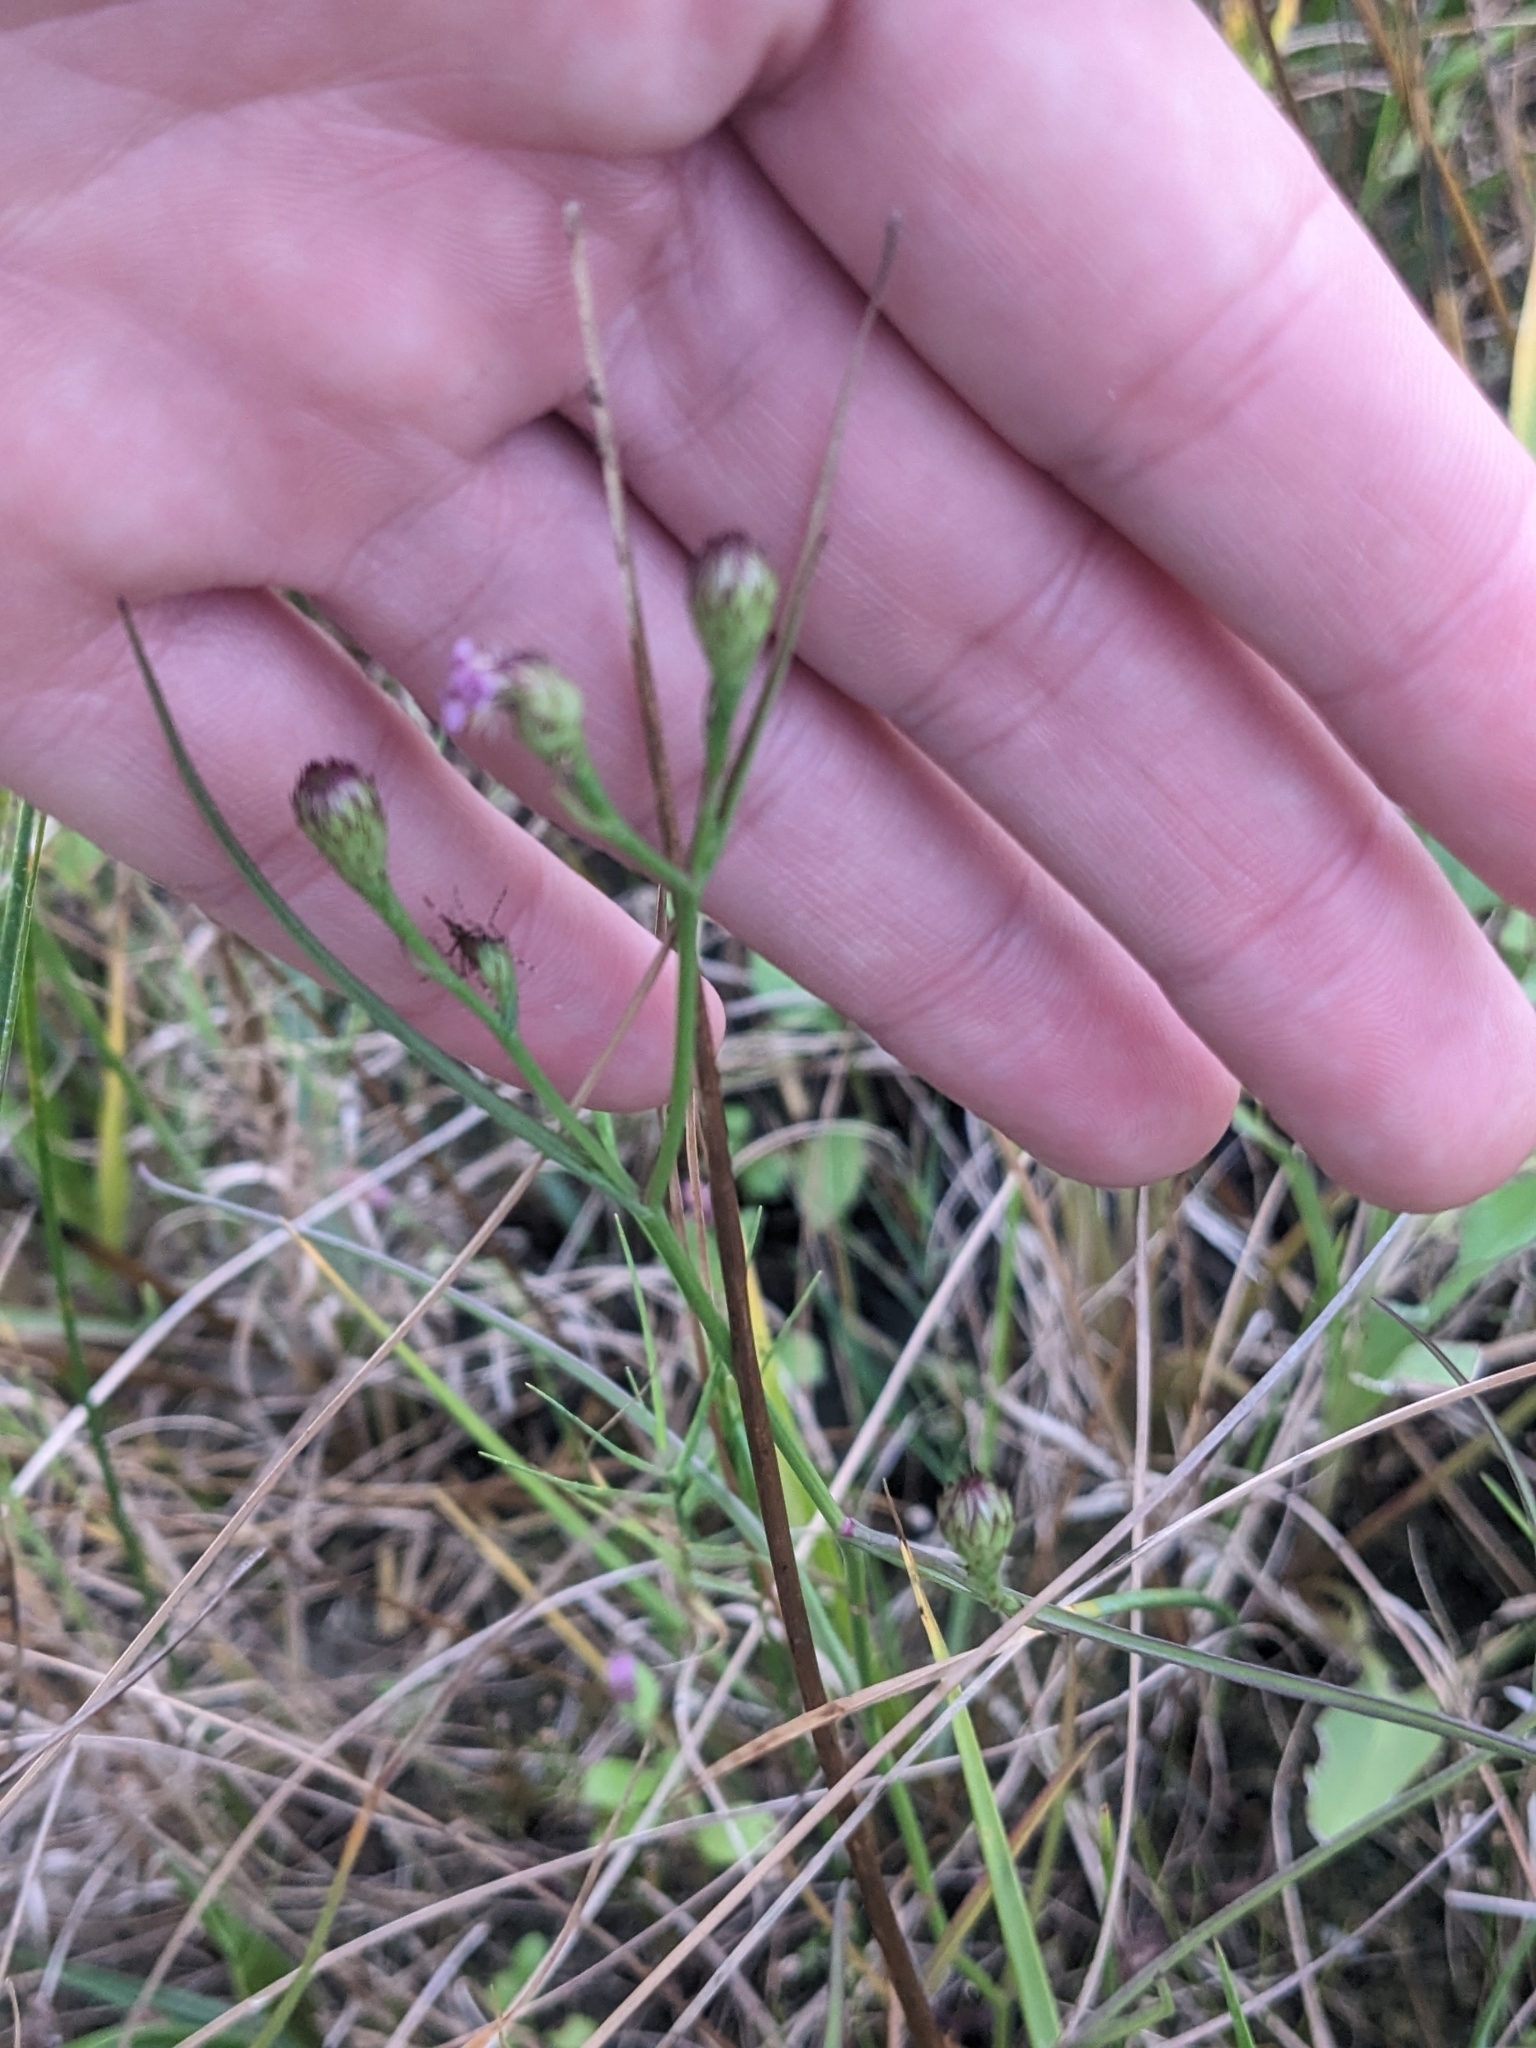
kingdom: Plantae
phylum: Tracheophyta
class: Magnoliopsida
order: Asterales
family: Asteraceae
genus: Symphyotrichum
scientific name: Symphyotrichum tenuifolium
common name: Perennial salt-marsh aster
